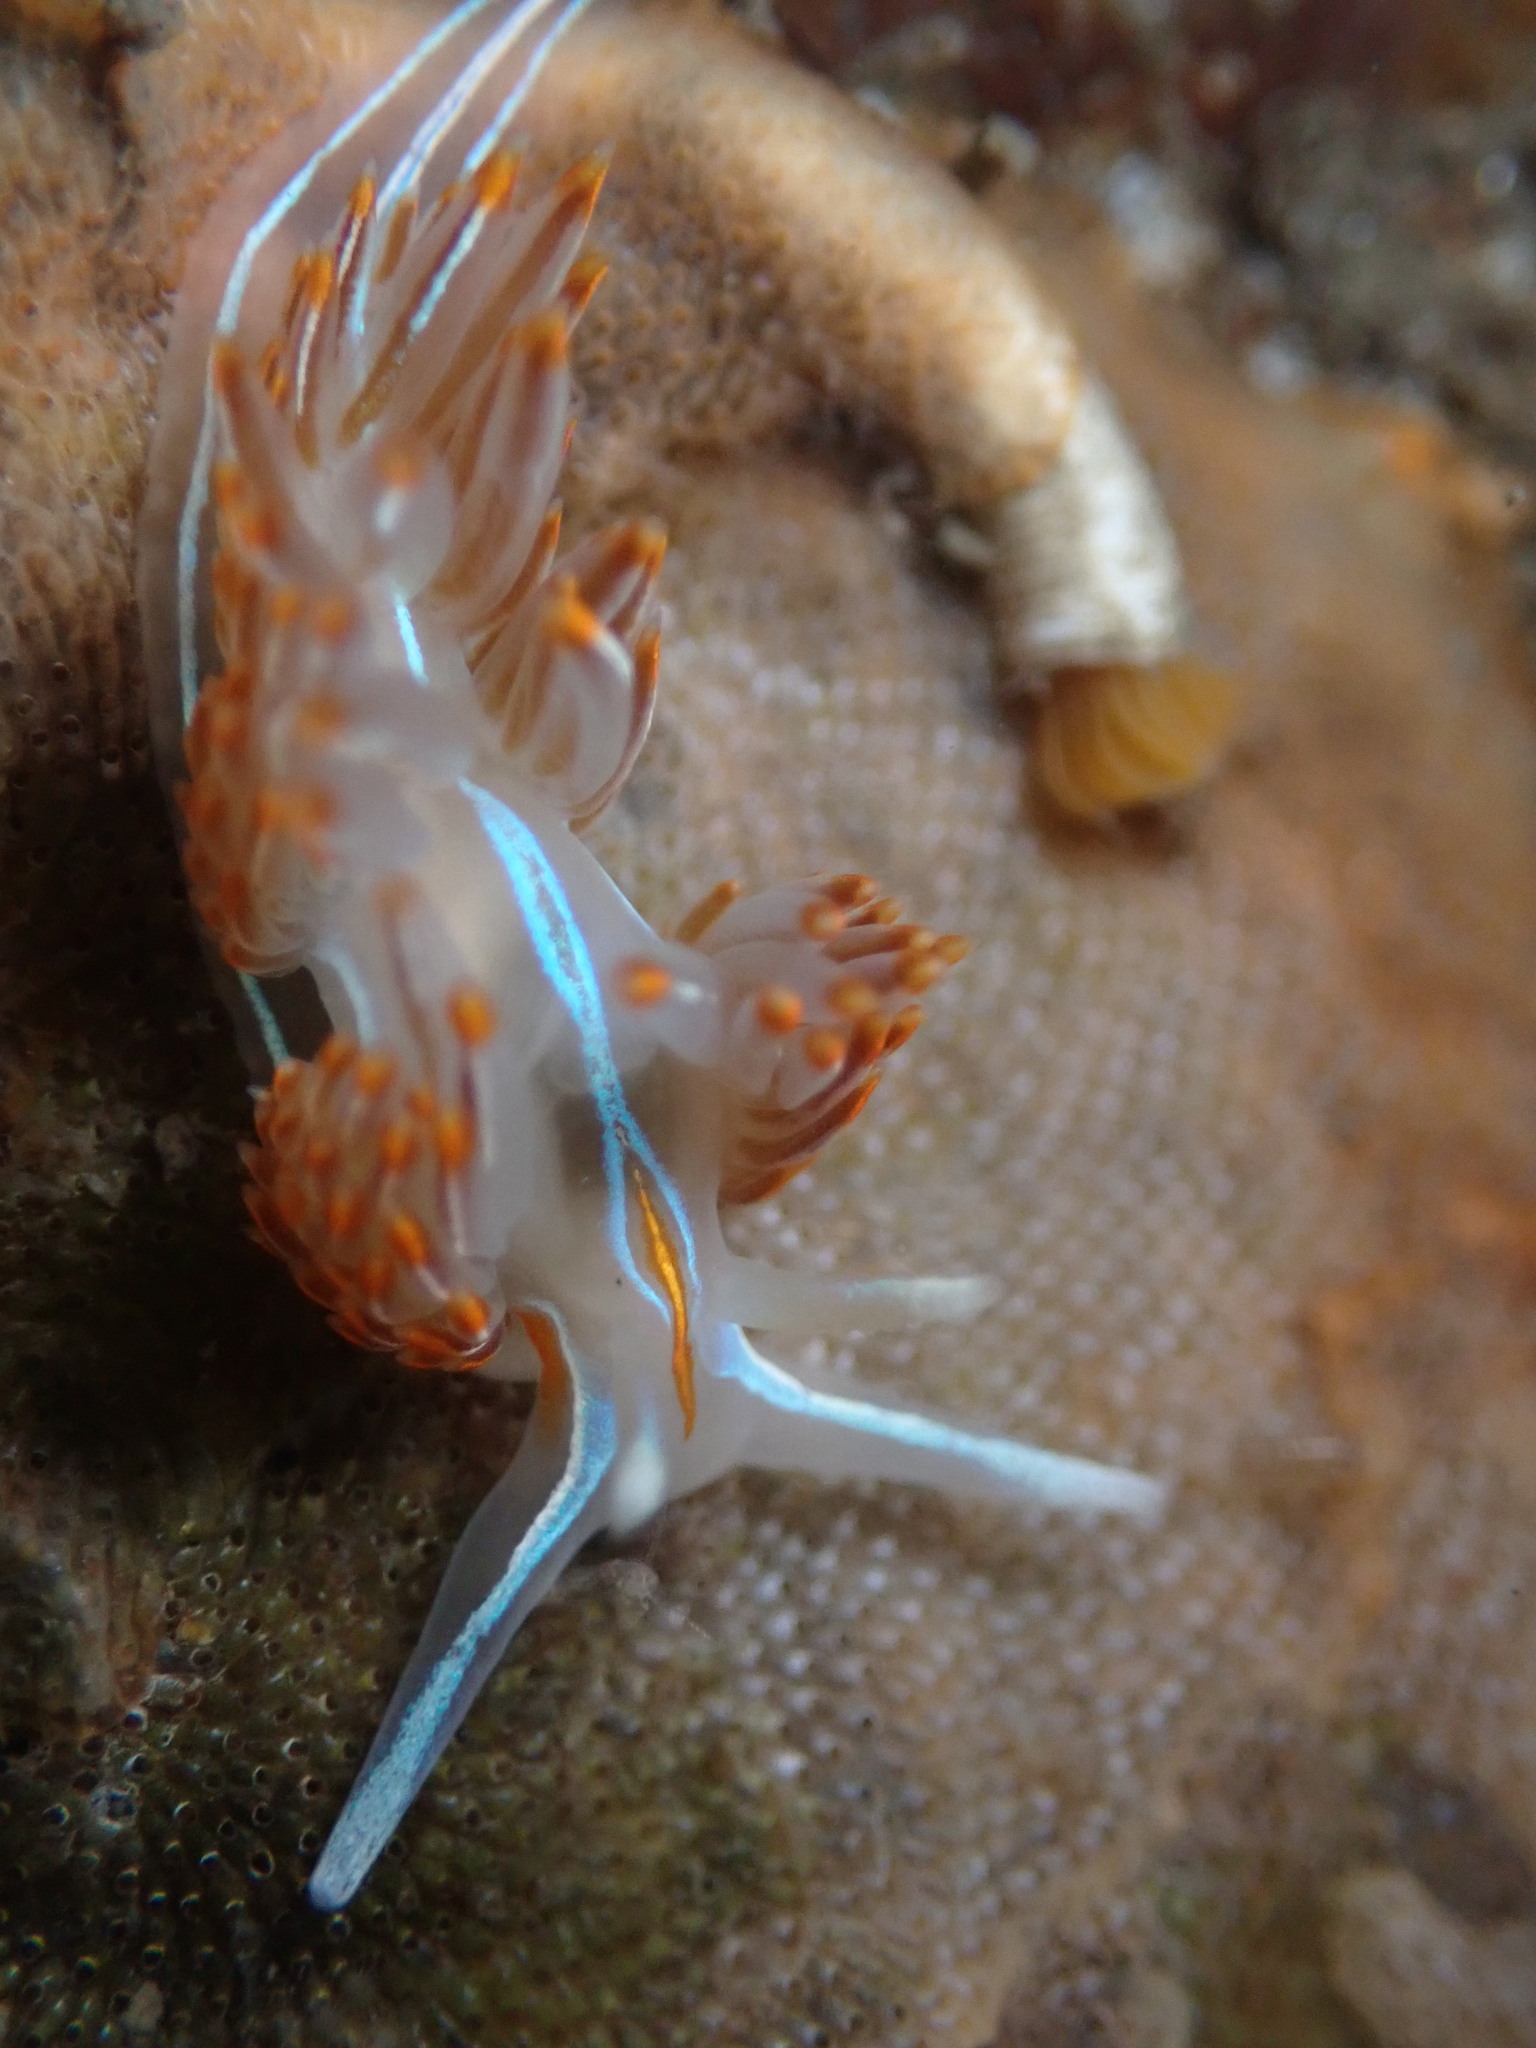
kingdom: Animalia
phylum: Mollusca
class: Gastropoda
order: Nudibranchia
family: Myrrhinidae
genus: Hermissenda
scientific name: Hermissenda crassicornis
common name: Hermissenda
